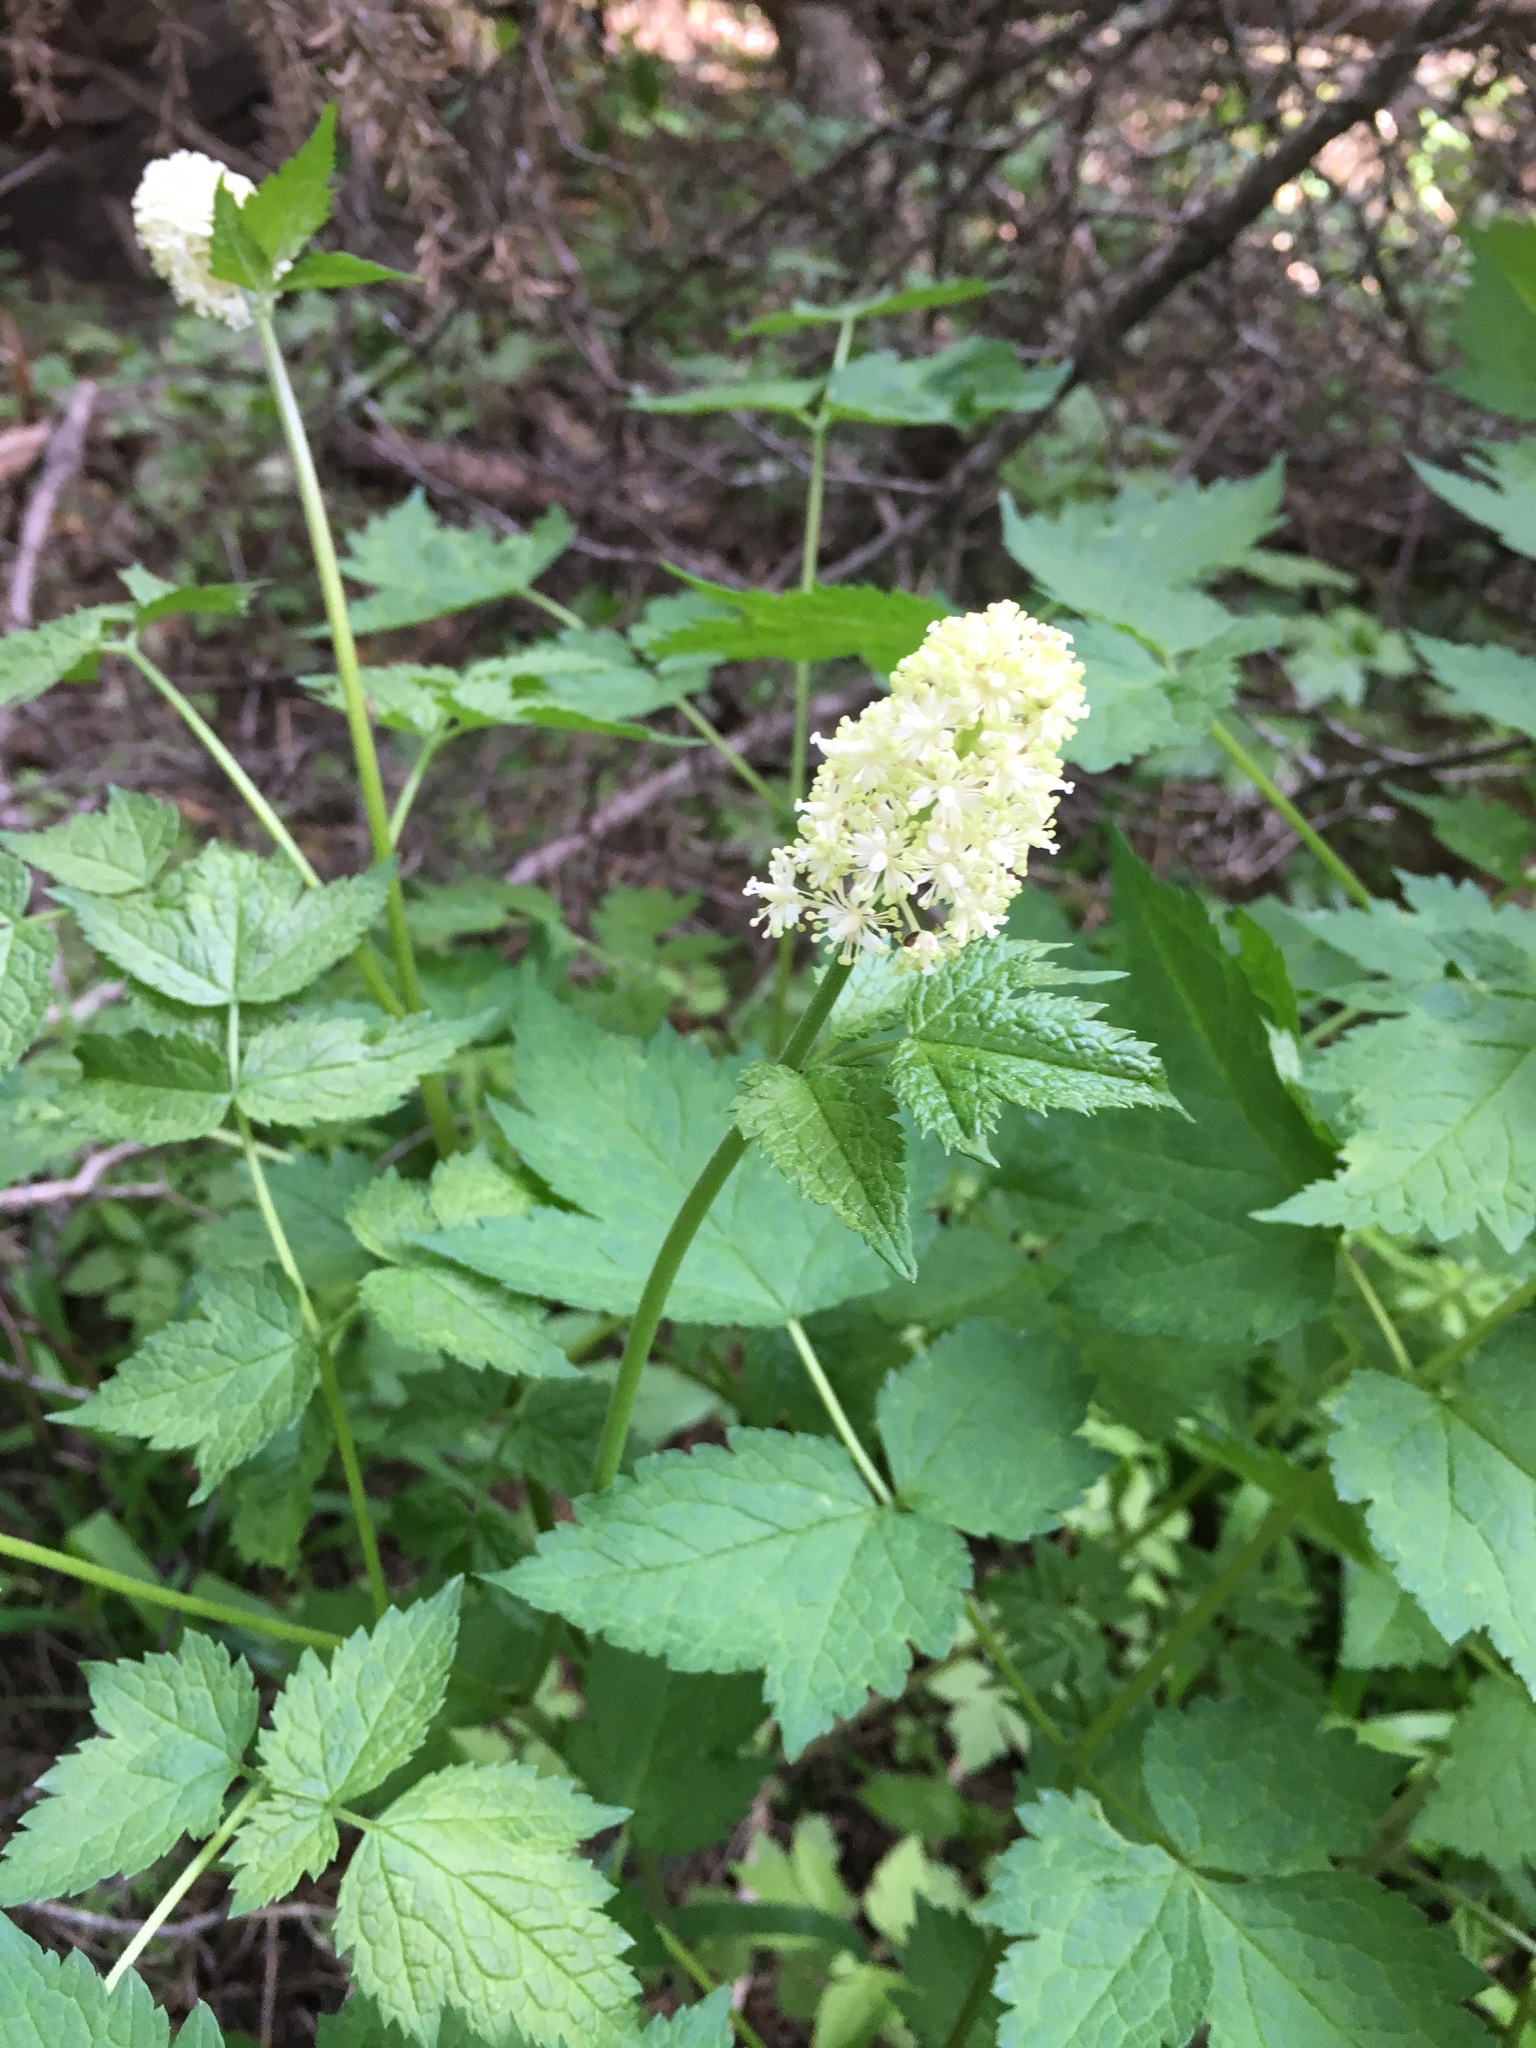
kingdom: Plantae
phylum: Tracheophyta
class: Magnoliopsida
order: Ranunculales
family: Ranunculaceae
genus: Actaea
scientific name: Actaea rubra
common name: Red baneberry
